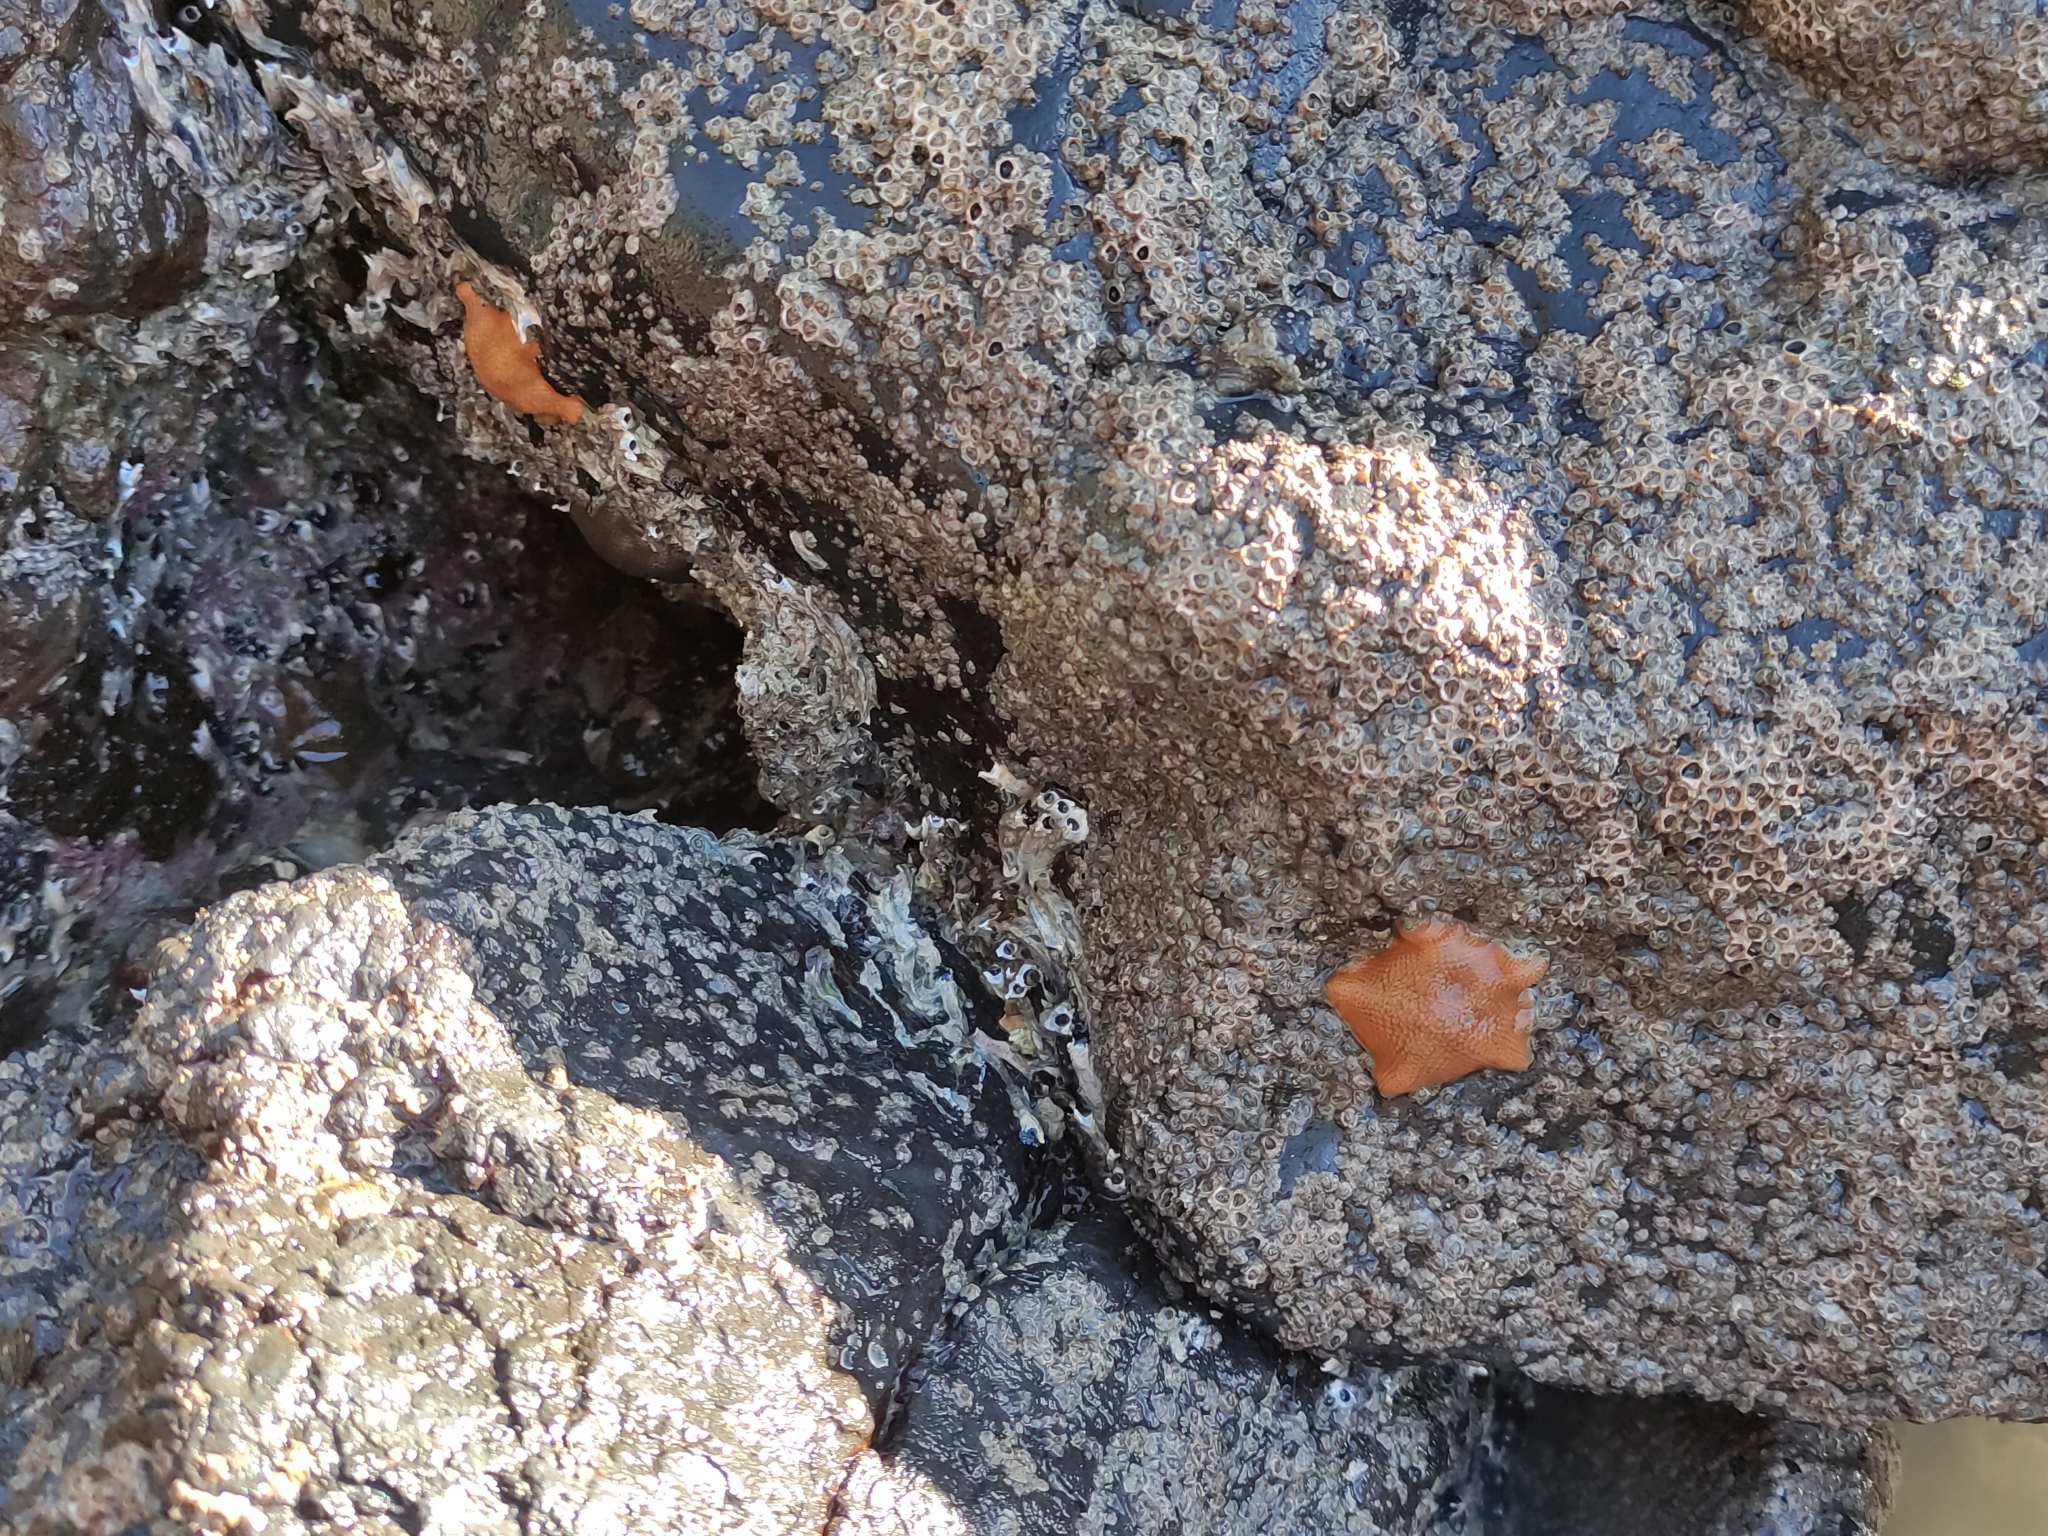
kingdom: Animalia
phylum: Echinodermata
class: Asteroidea
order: Valvatida
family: Asterinidae
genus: Patiriella
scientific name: Patiriella regularis
